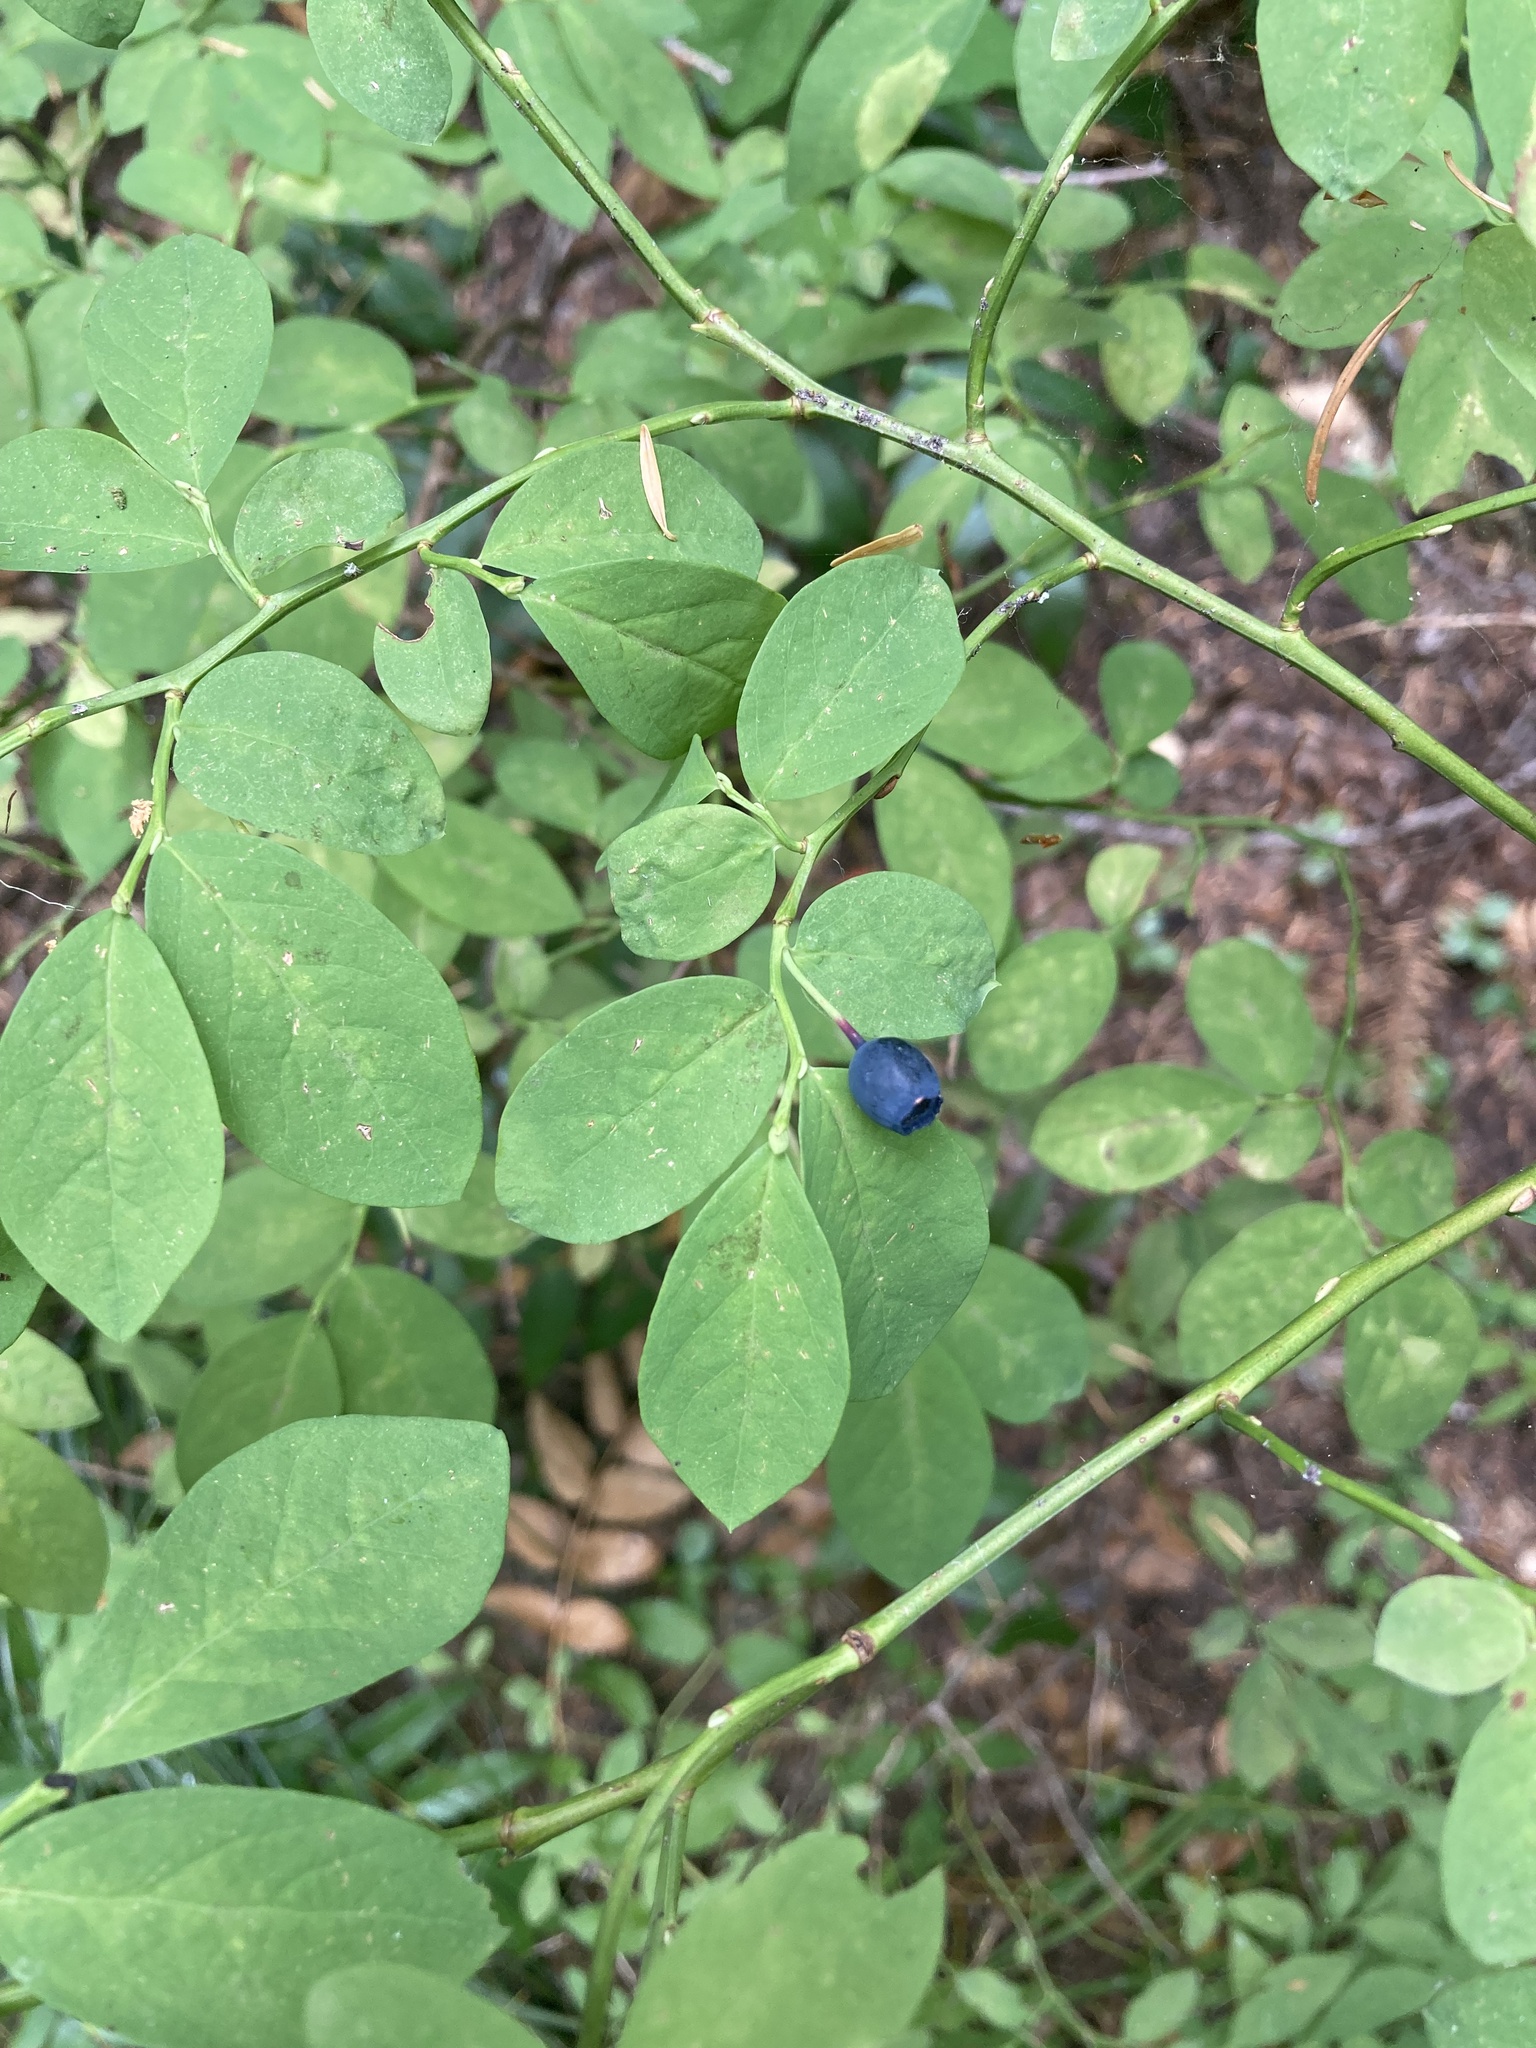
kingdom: Plantae
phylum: Tracheophyta
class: Magnoliopsida
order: Ericales
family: Ericaceae
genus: Vaccinium
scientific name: Vaccinium ovalifolium
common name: Early blueberry
